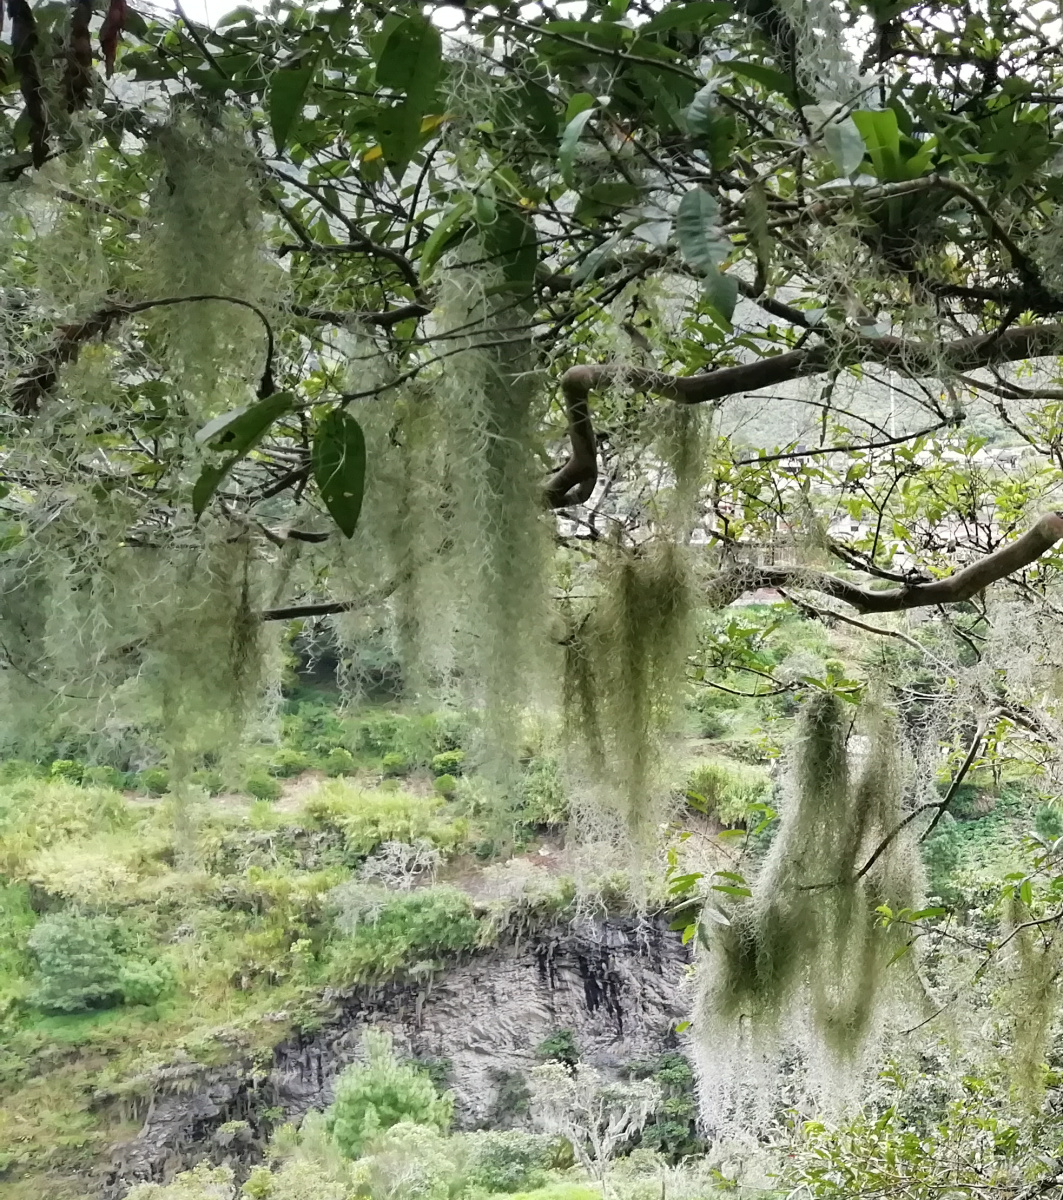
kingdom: Plantae
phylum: Tracheophyta
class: Liliopsida
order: Poales
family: Bromeliaceae
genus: Tillandsia
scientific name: Tillandsia usneoides
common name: Spanish moss
